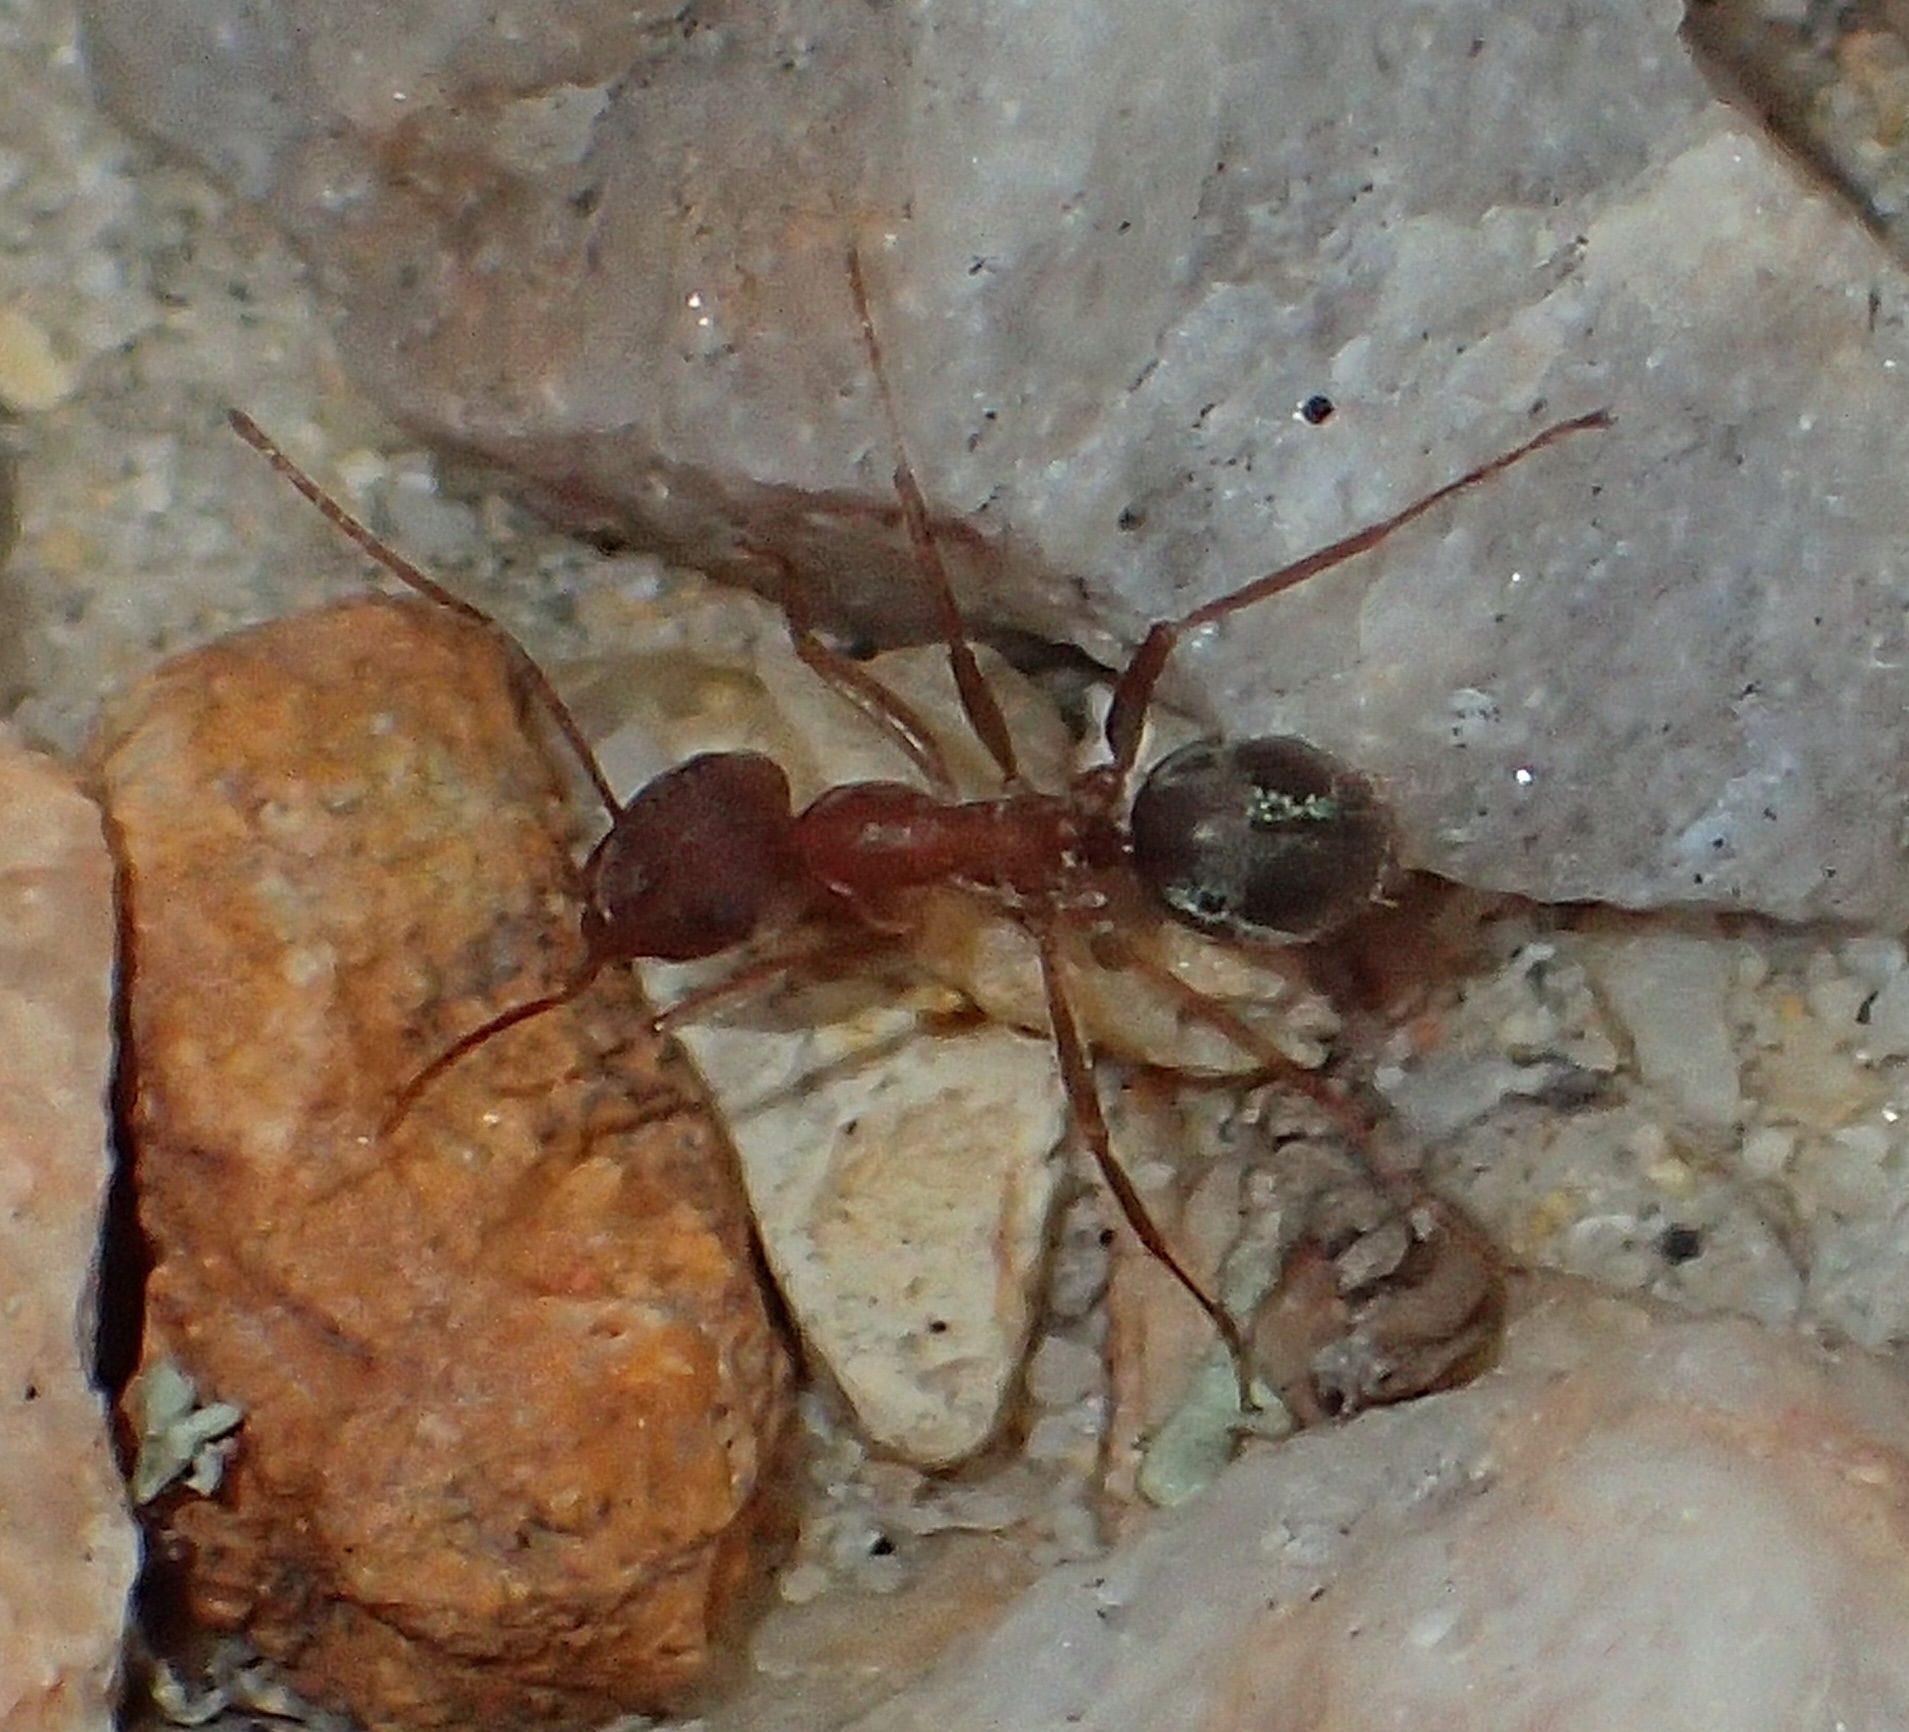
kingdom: Animalia
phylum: Arthropoda
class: Insecta
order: Hymenoptera
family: Formicidae
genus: Anoplolepis
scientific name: Anoplolepis steingroeveri
